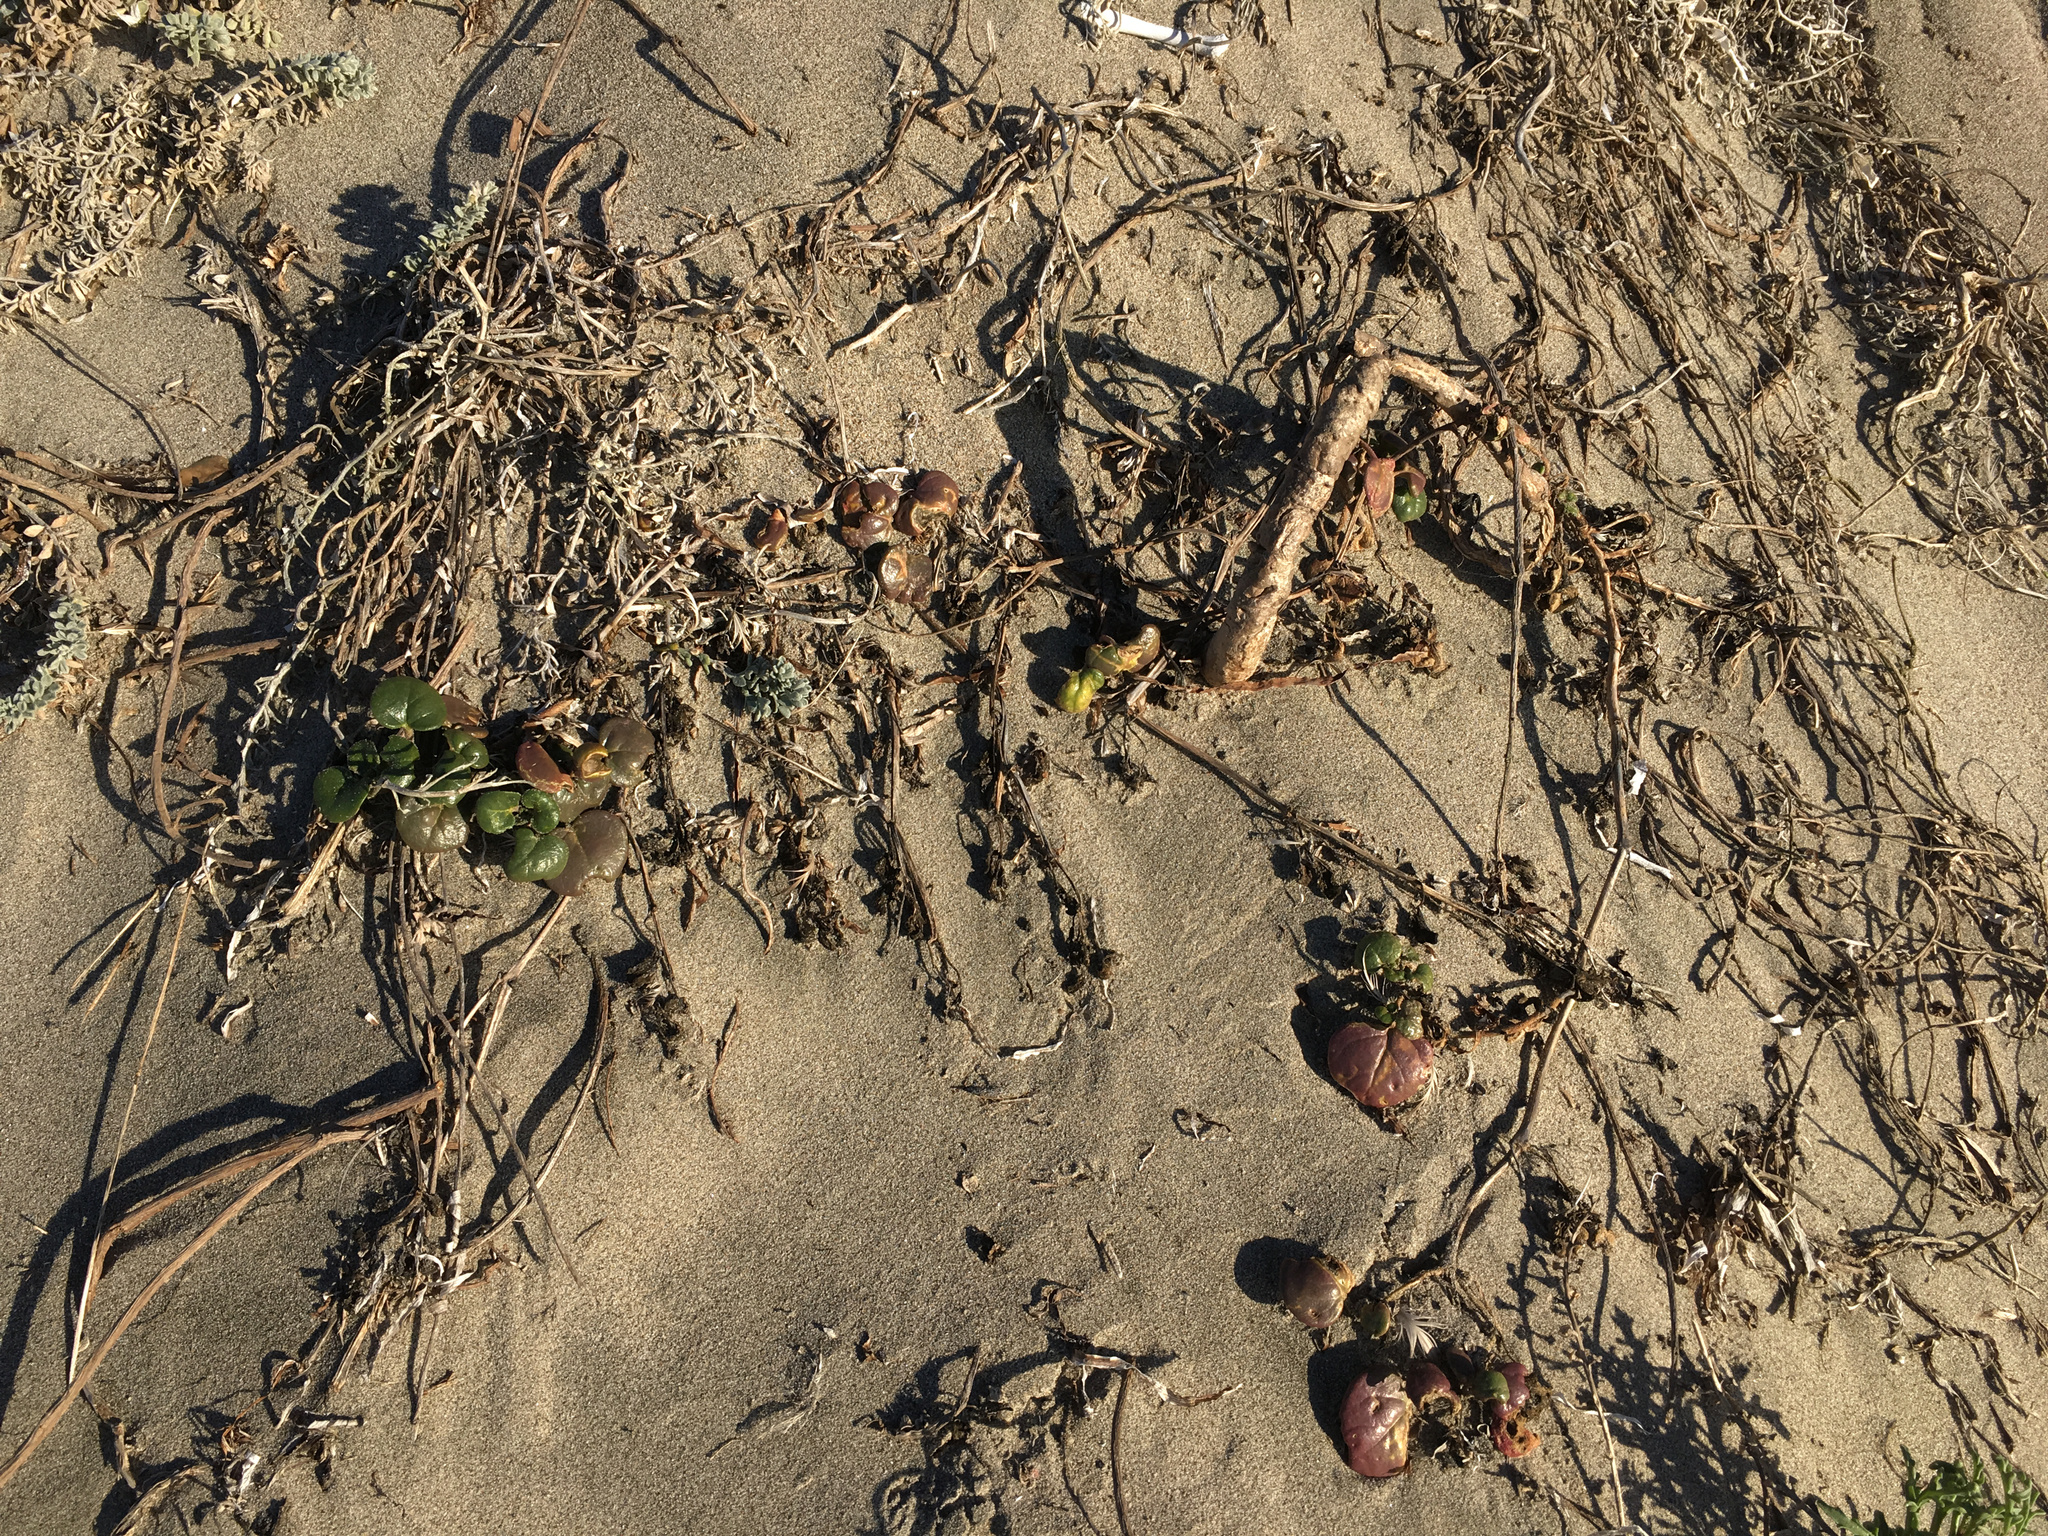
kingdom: Plantae
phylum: Tracheophyta
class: Magnoliopsida
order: Solanales
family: Convolvulaceae
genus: Calystegia
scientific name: Calystegia soldanella
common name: Sea bindweed
